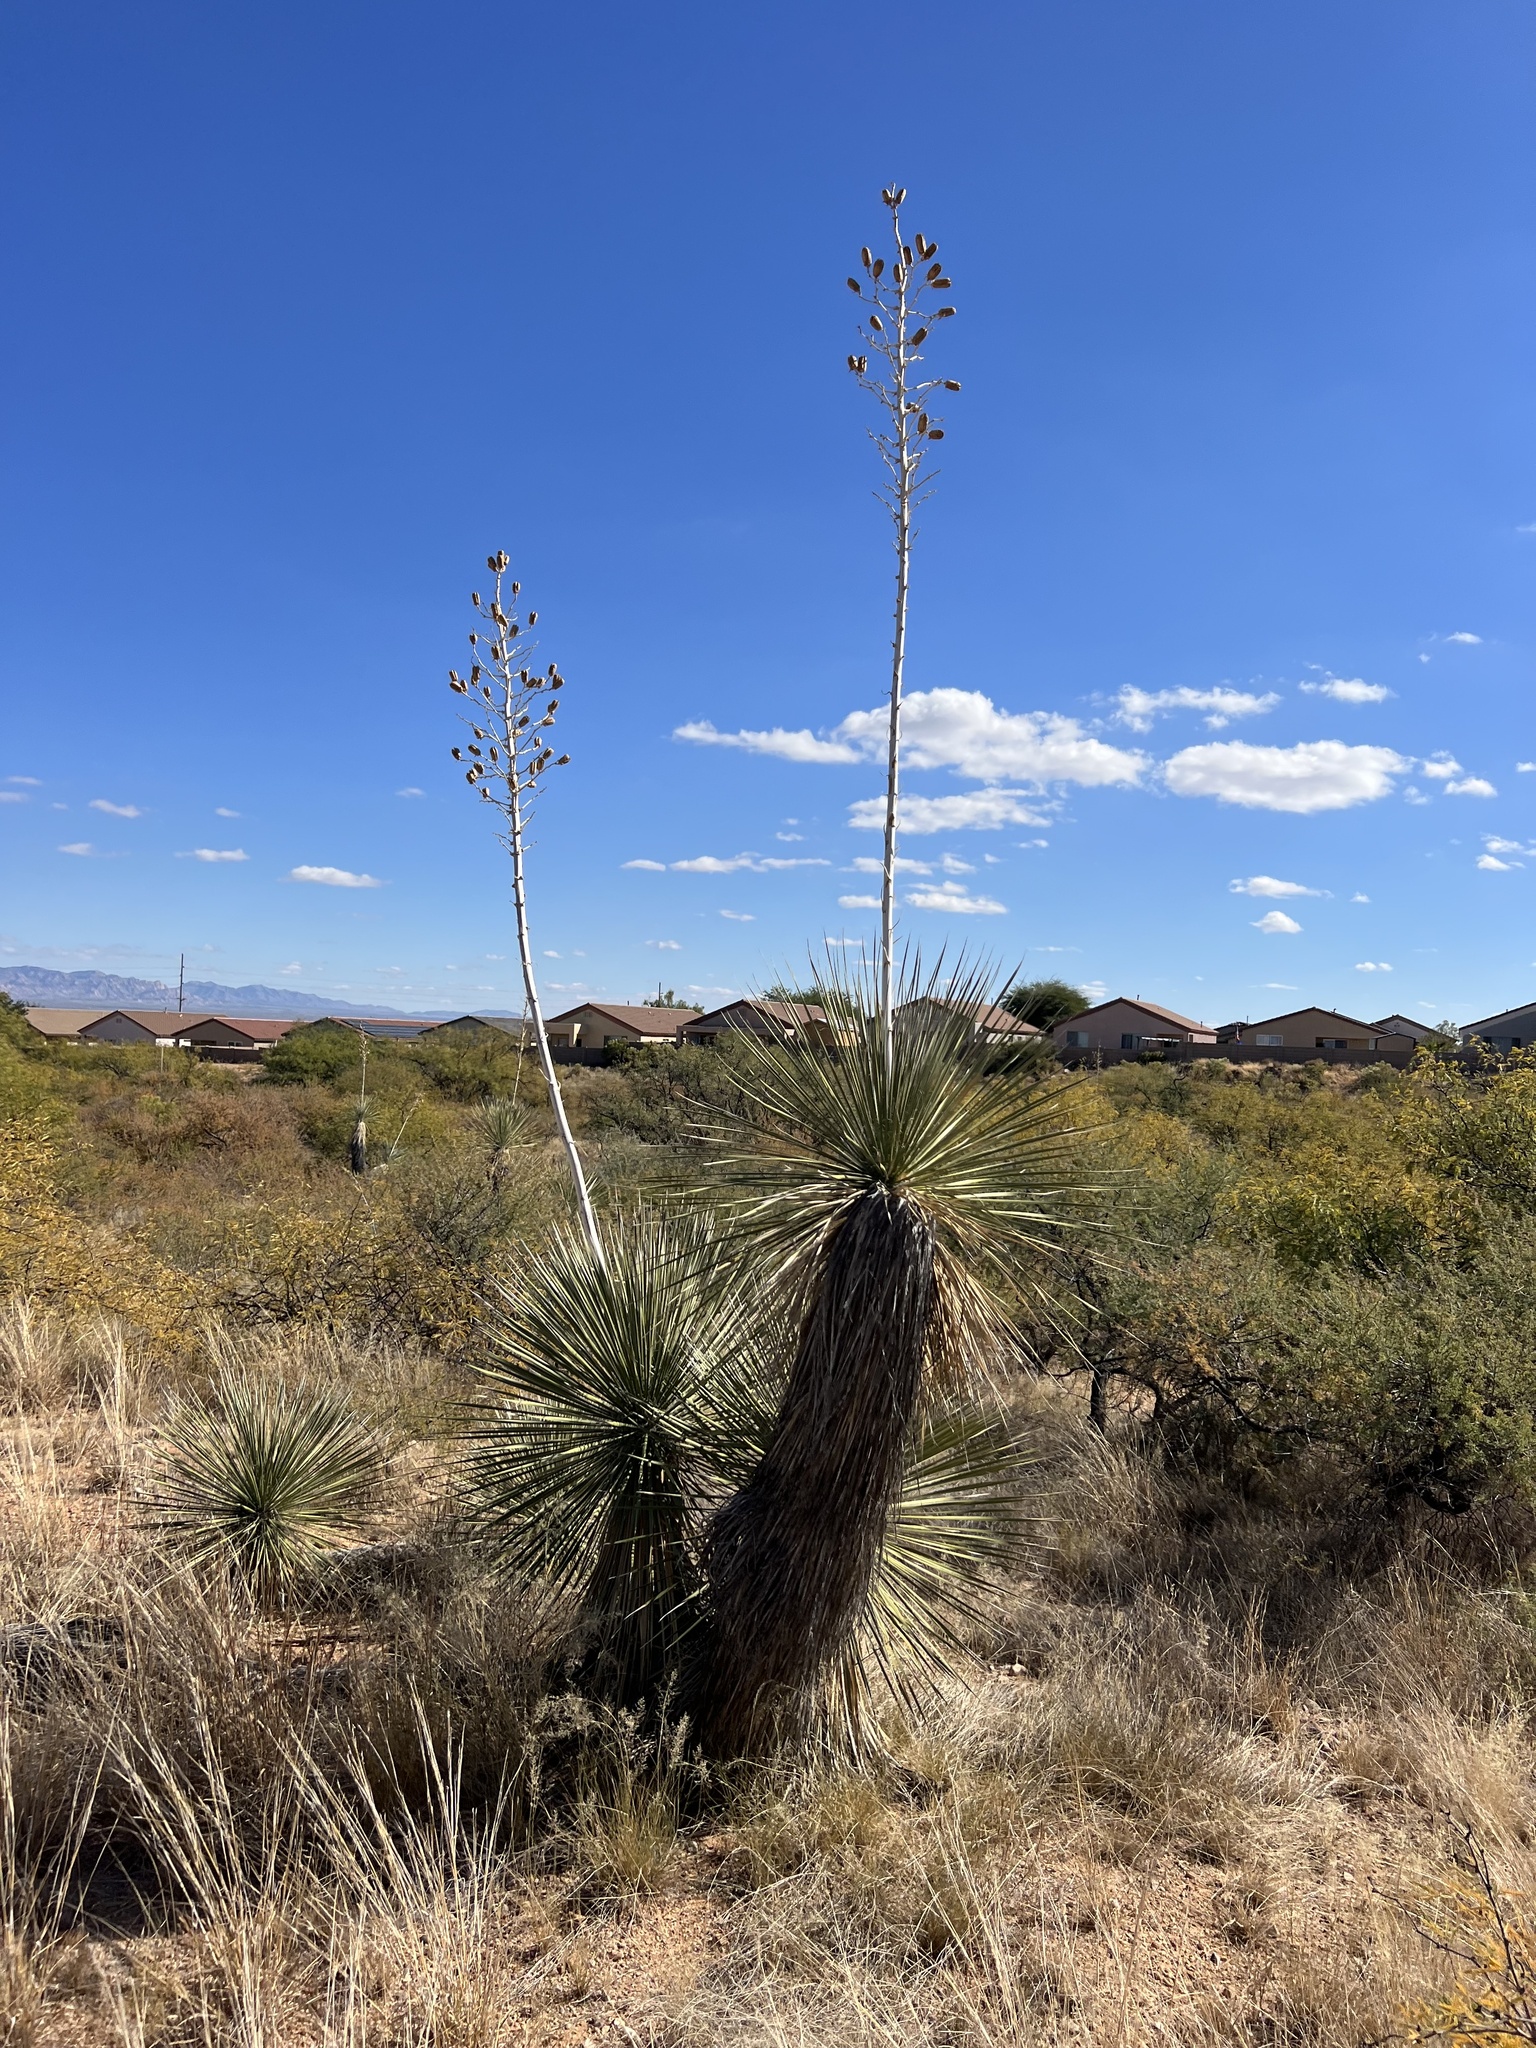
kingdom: Plantae
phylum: Tracheophyta
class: Liliopsida
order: Asparagales
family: Asparagaceae
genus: Yucca
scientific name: Yucca elata
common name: Palmella
